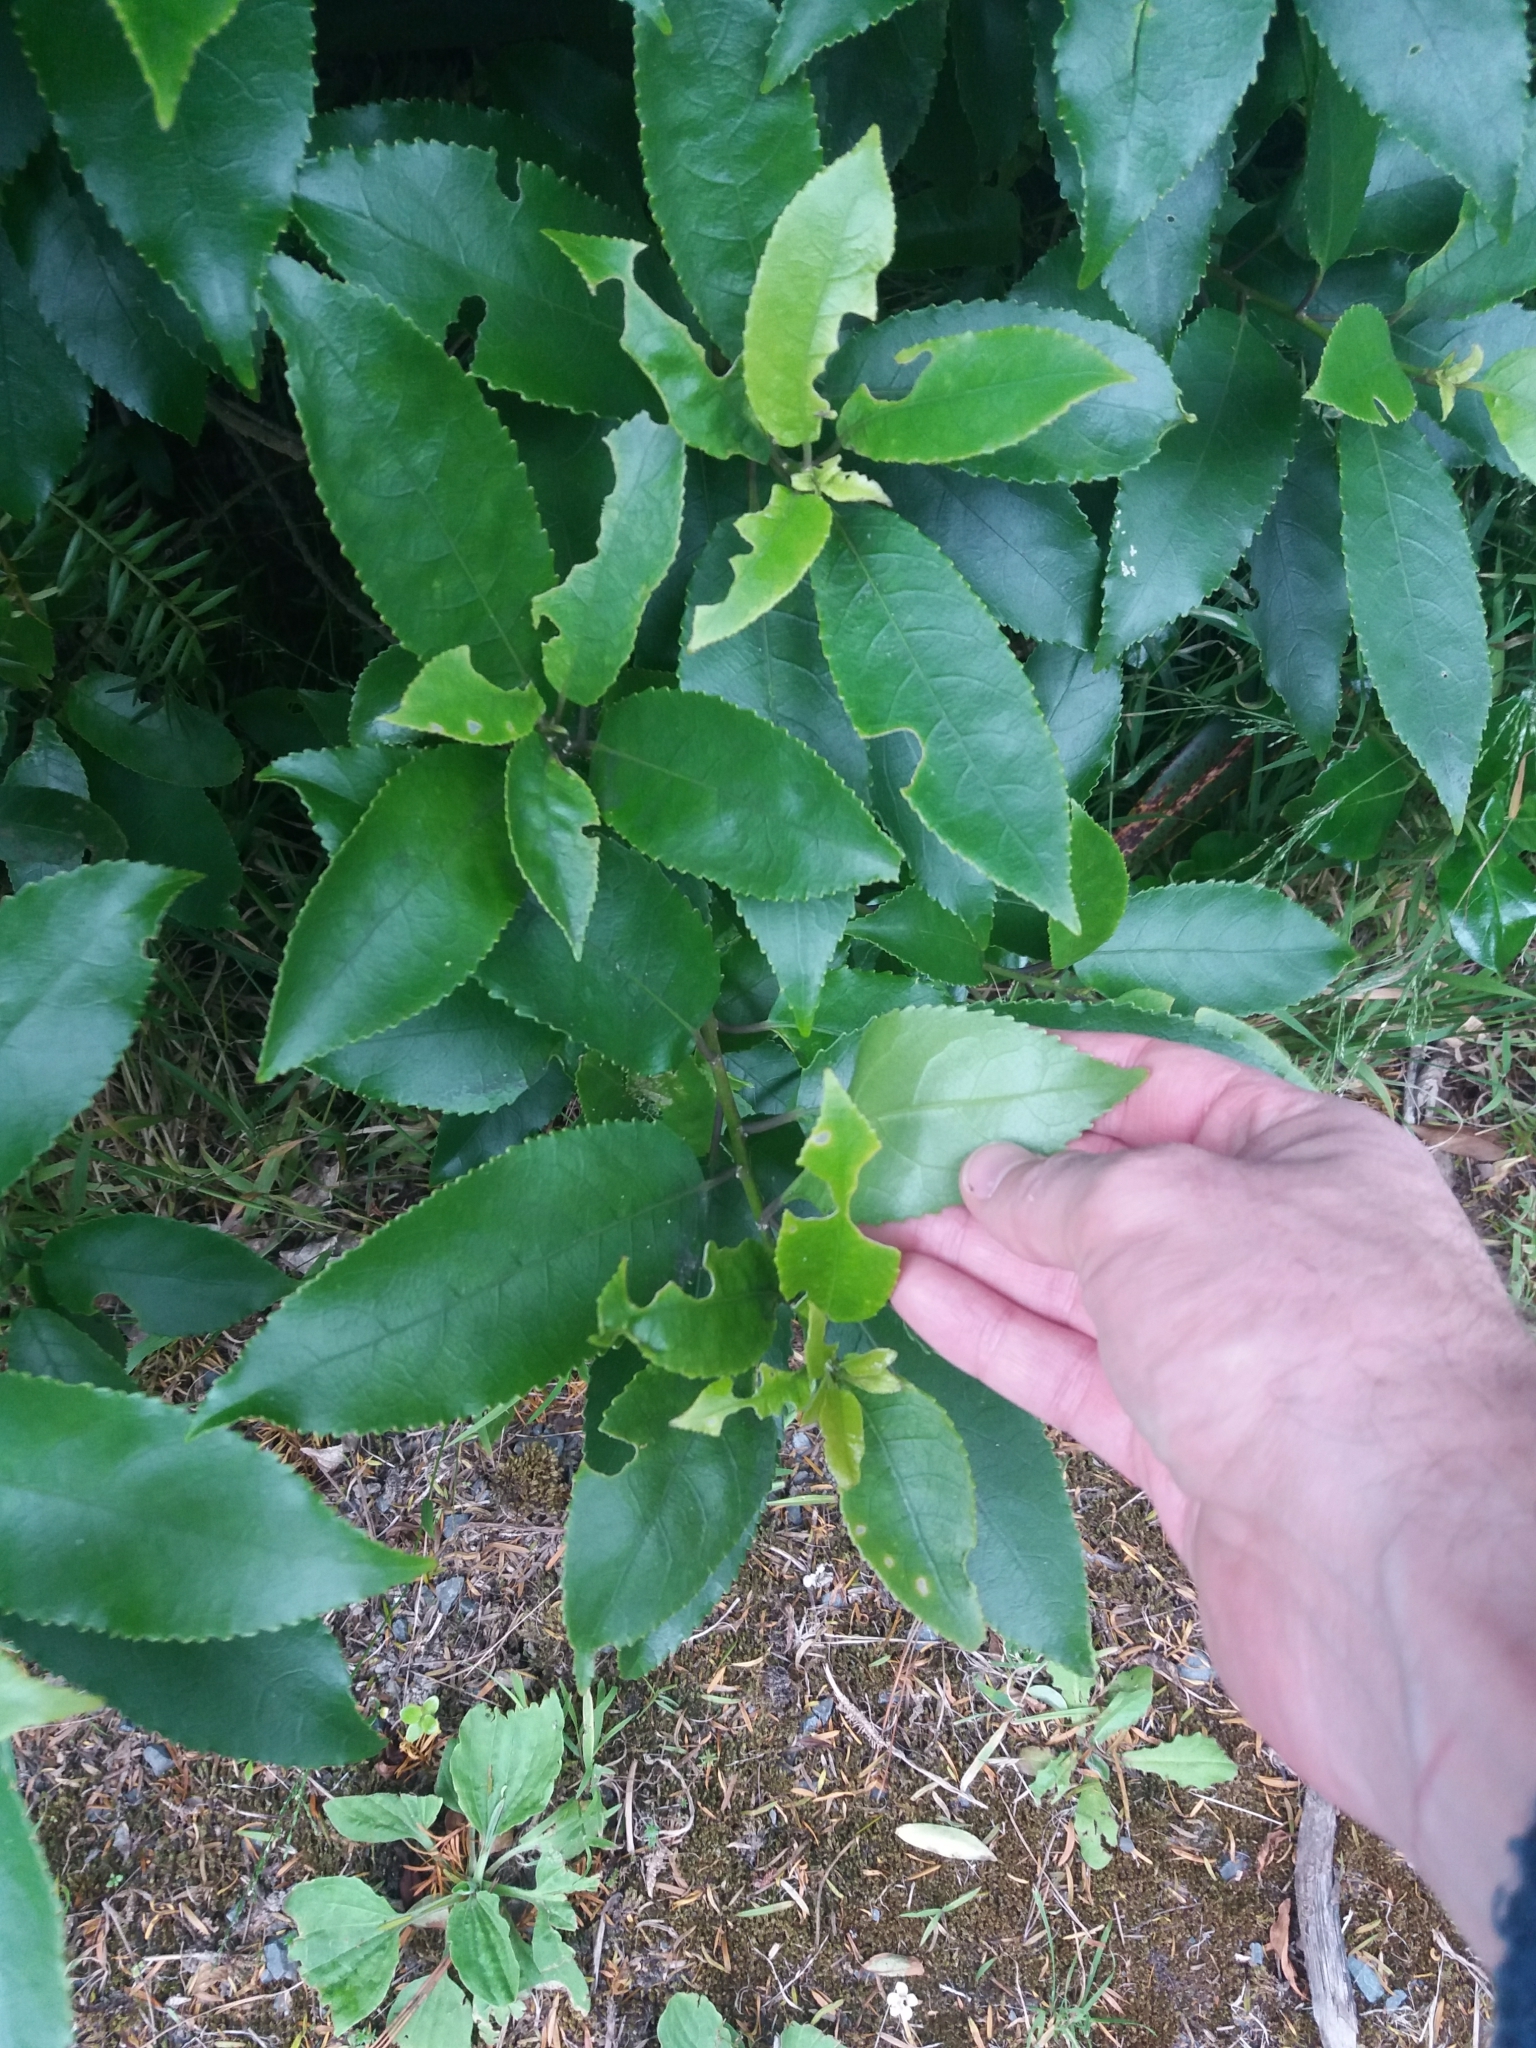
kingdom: Plantae
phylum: Tracheophyta
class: Magnoliopsida
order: Malpighiales
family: Violaceae
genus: Melicytus
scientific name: Melicytus ramiflorus
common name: Mahoe
